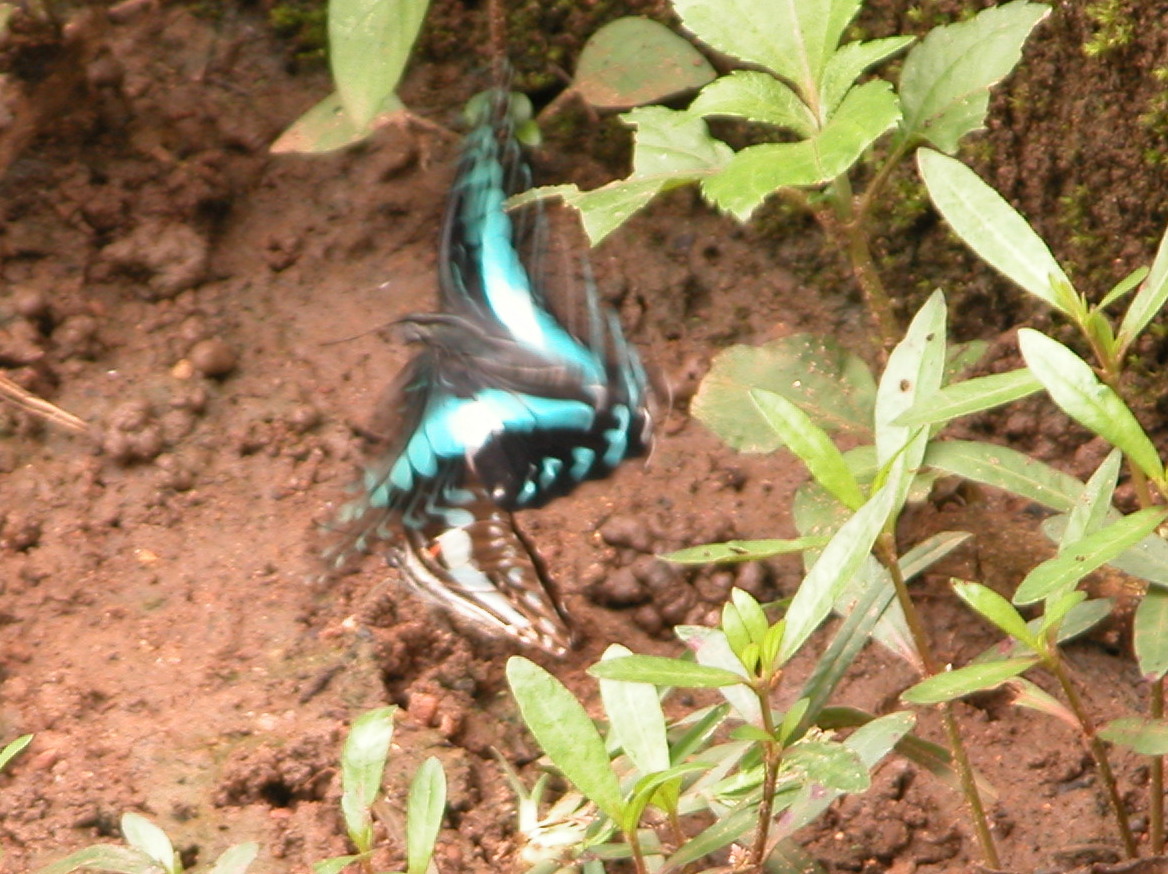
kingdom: Animalia
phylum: Arthropoda
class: Insecta
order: Lepidoptera
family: Papilionidae
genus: Graphium
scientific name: Graphium doson
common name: Common jay
